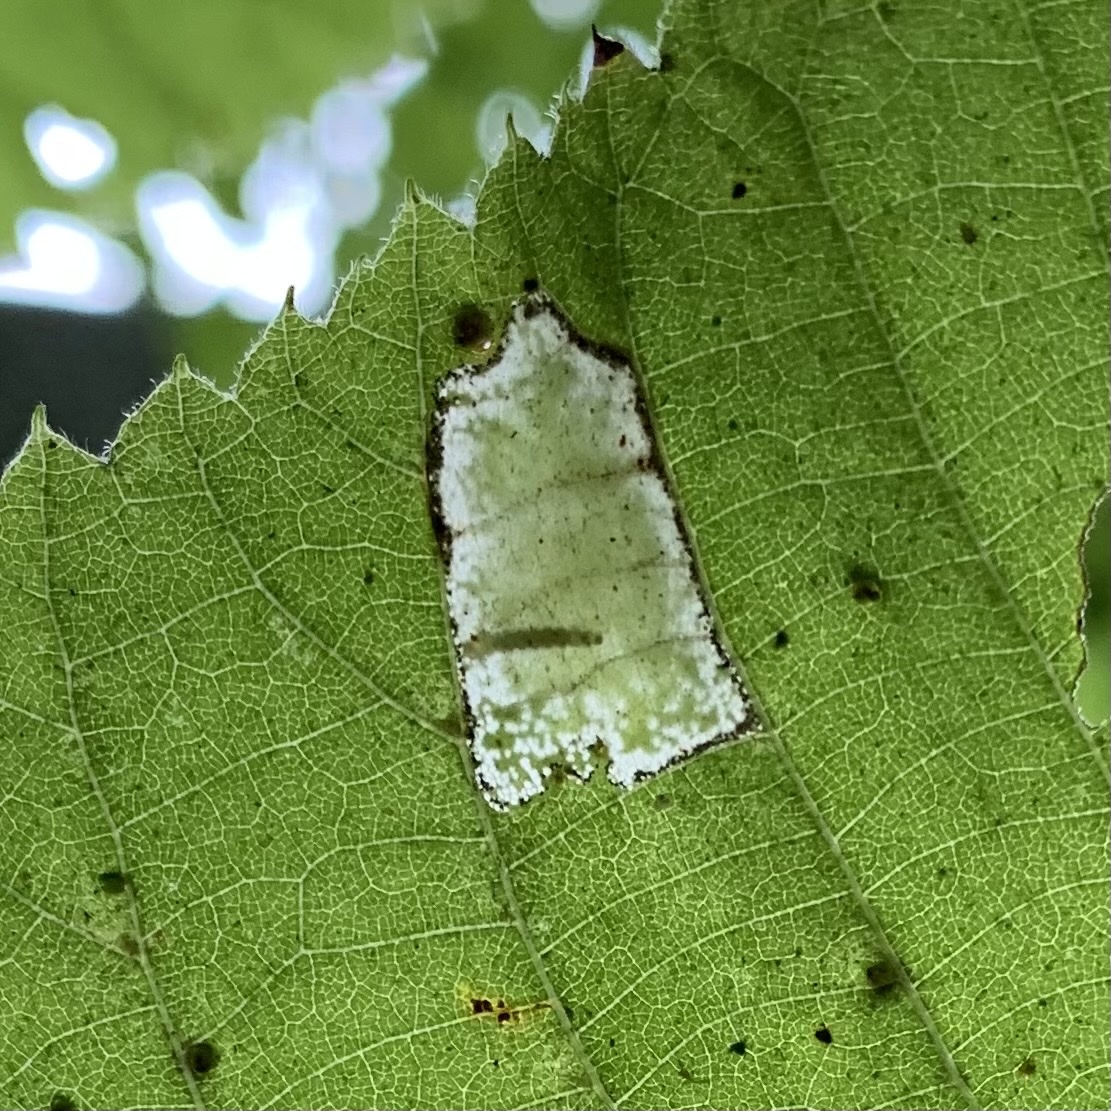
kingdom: Animalia
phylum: Arthropoda
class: Insecta
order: Lepidoptera
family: Gracillariidae
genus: Phyllonorycter
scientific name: Phyllonorycter lucetiella
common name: Basswood miner moth
